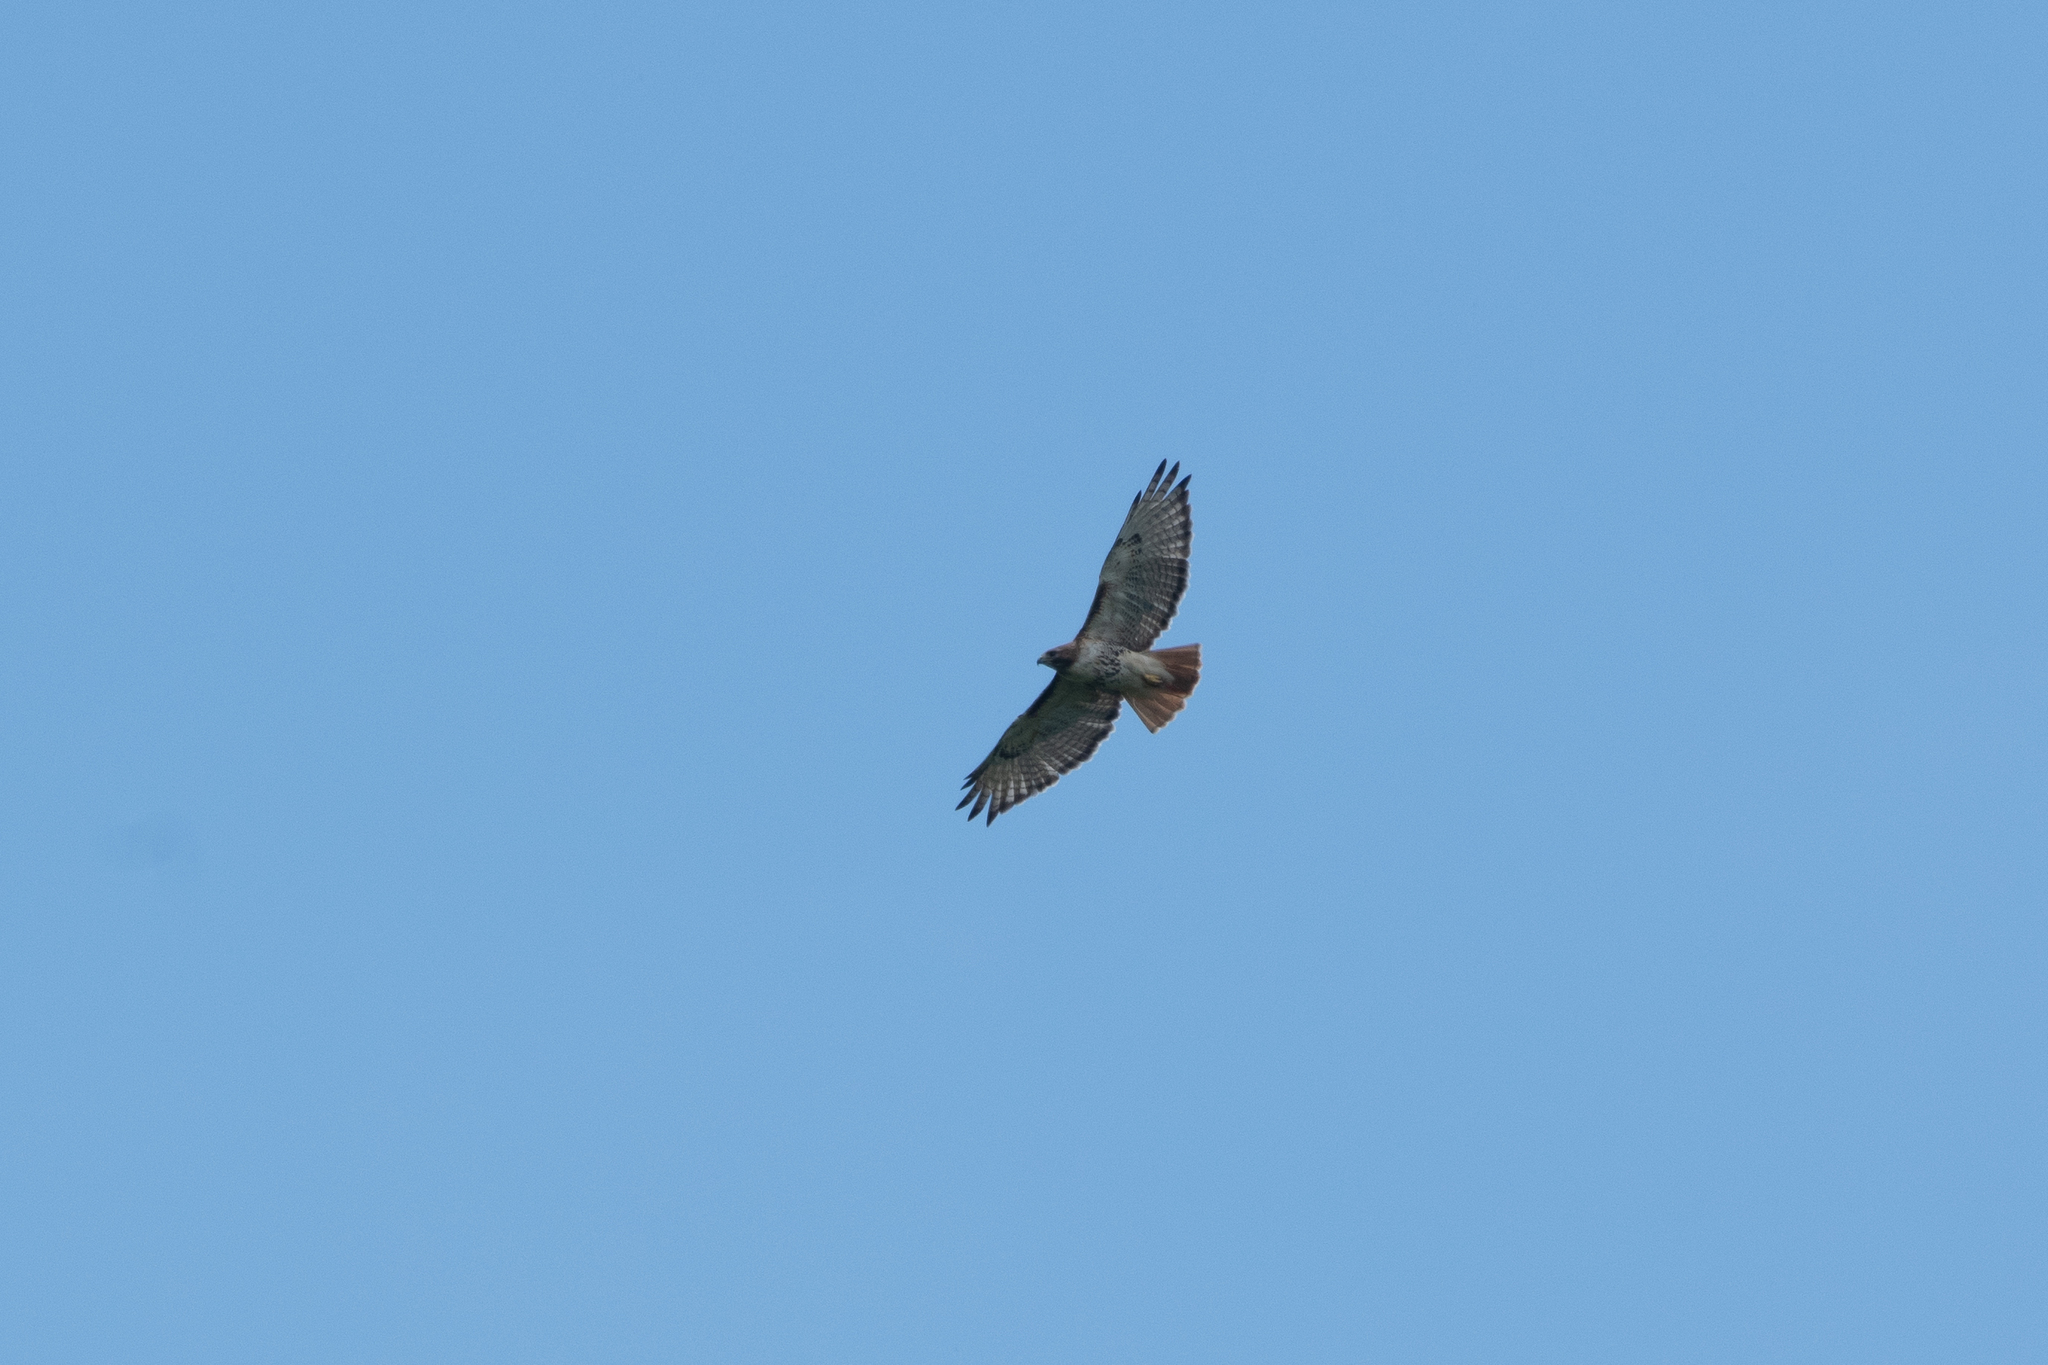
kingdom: Animalia
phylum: Chordata
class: Aves
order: Accipitriformes
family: Accipitridae
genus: Buteo
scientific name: Buteo jamaicensis
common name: Red-tailed hawk
